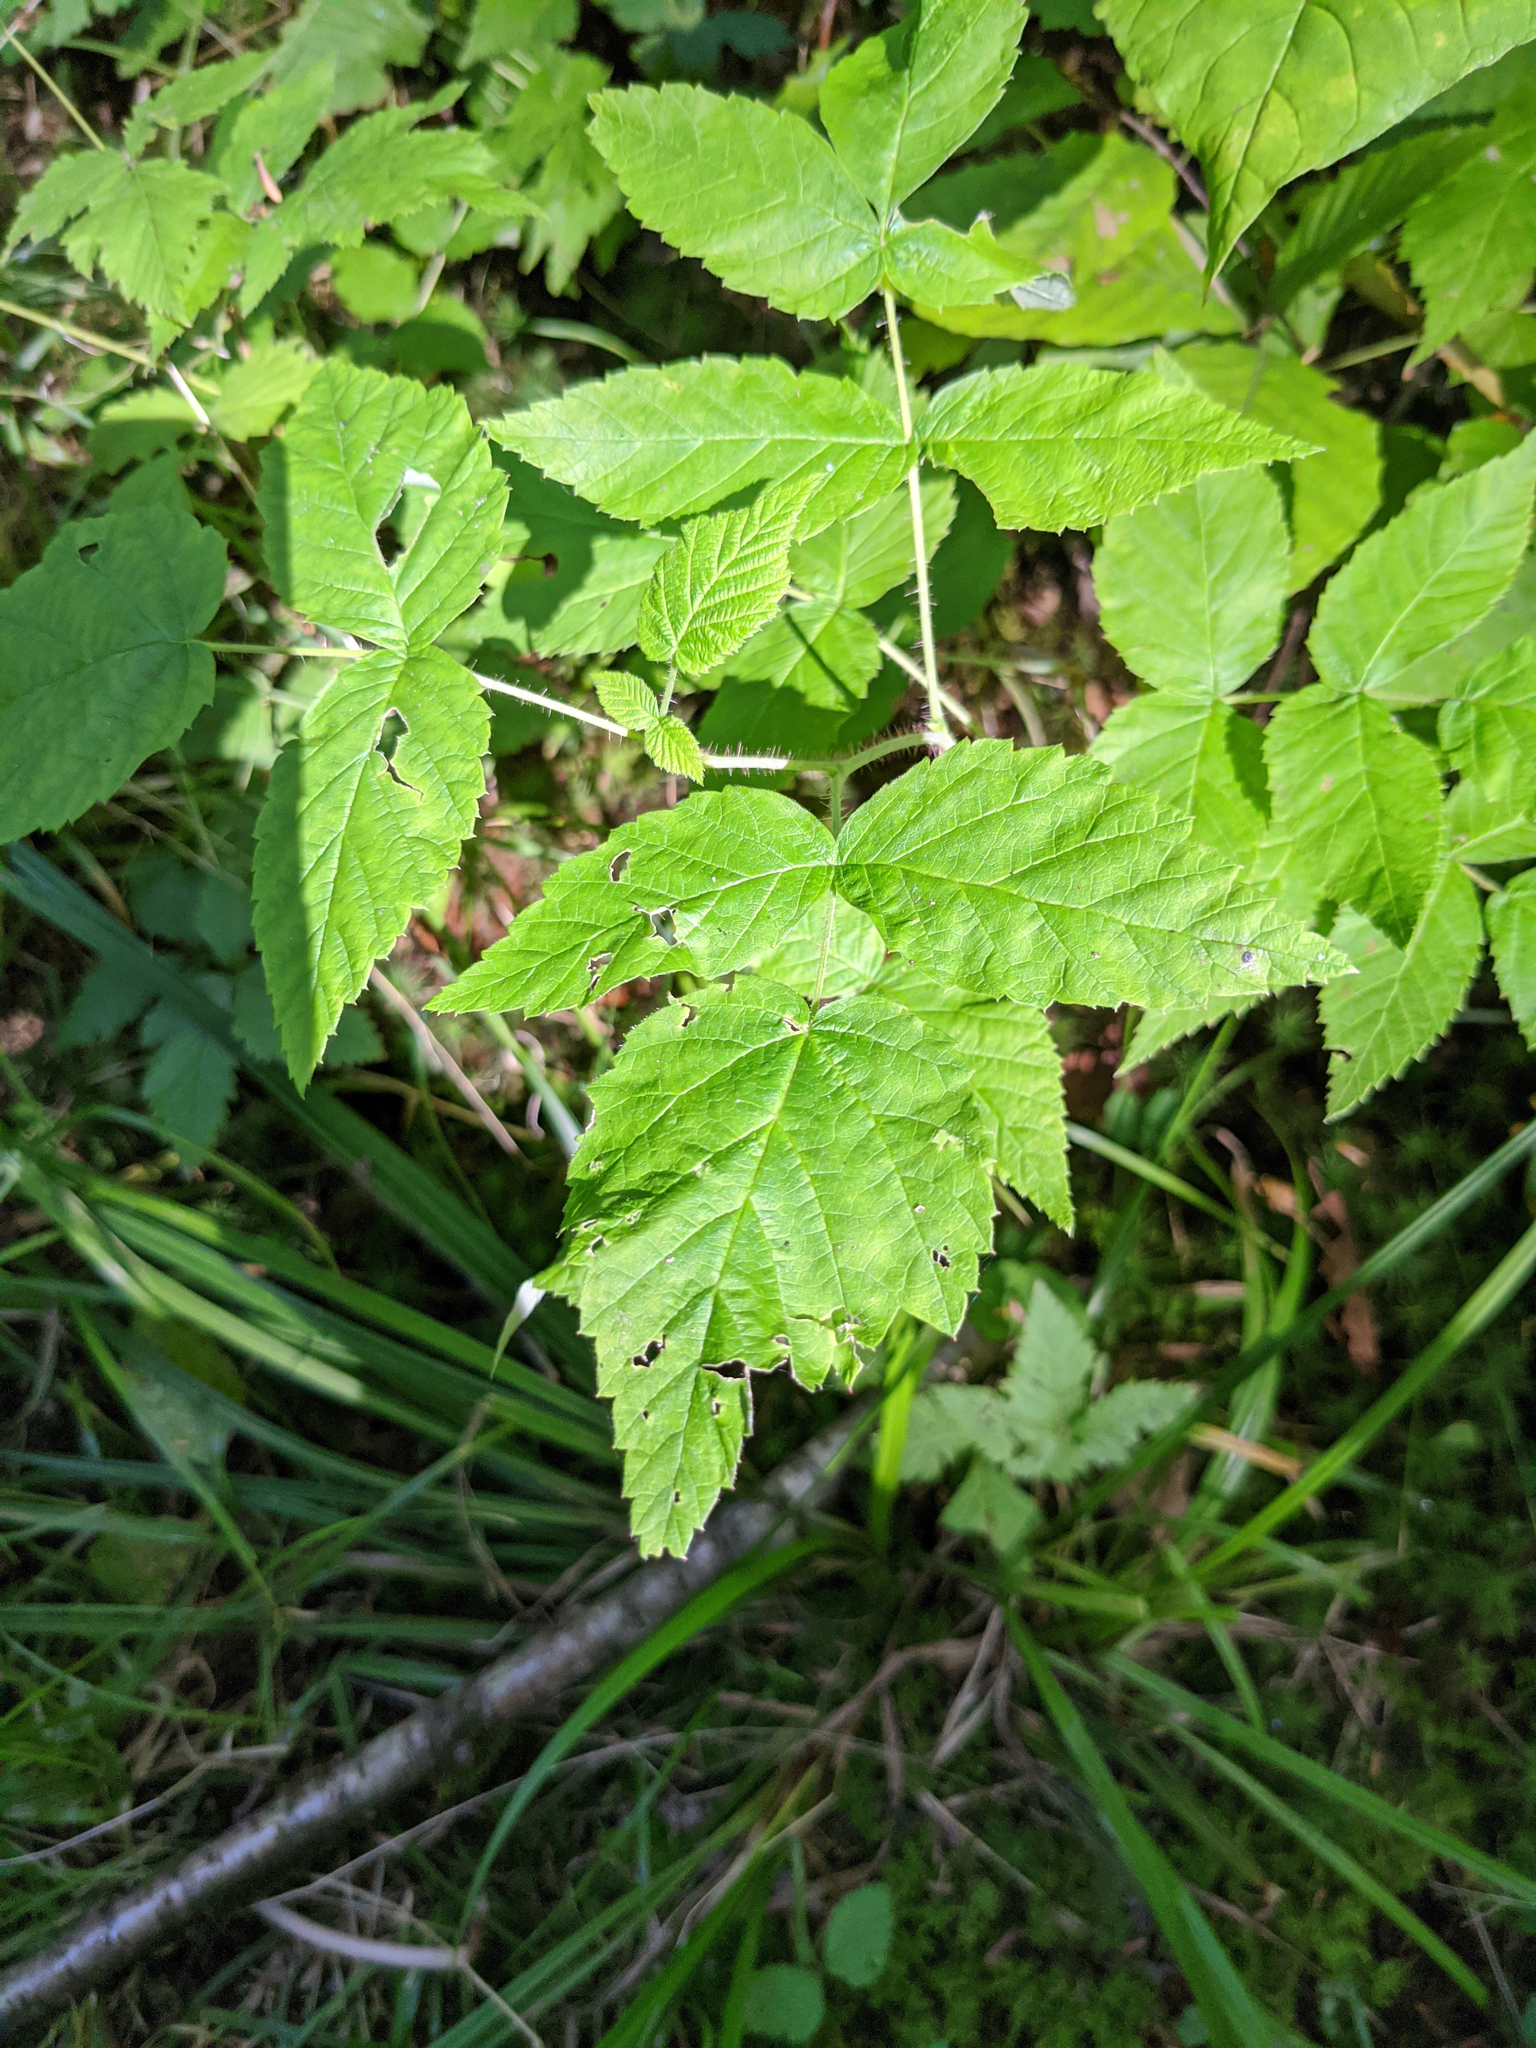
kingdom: Plantae
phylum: Tracheophyta
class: Magnoliopsida
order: Rosales
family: Rosaceae
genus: Rubus
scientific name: Rubus idaeus
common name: Raspberry
